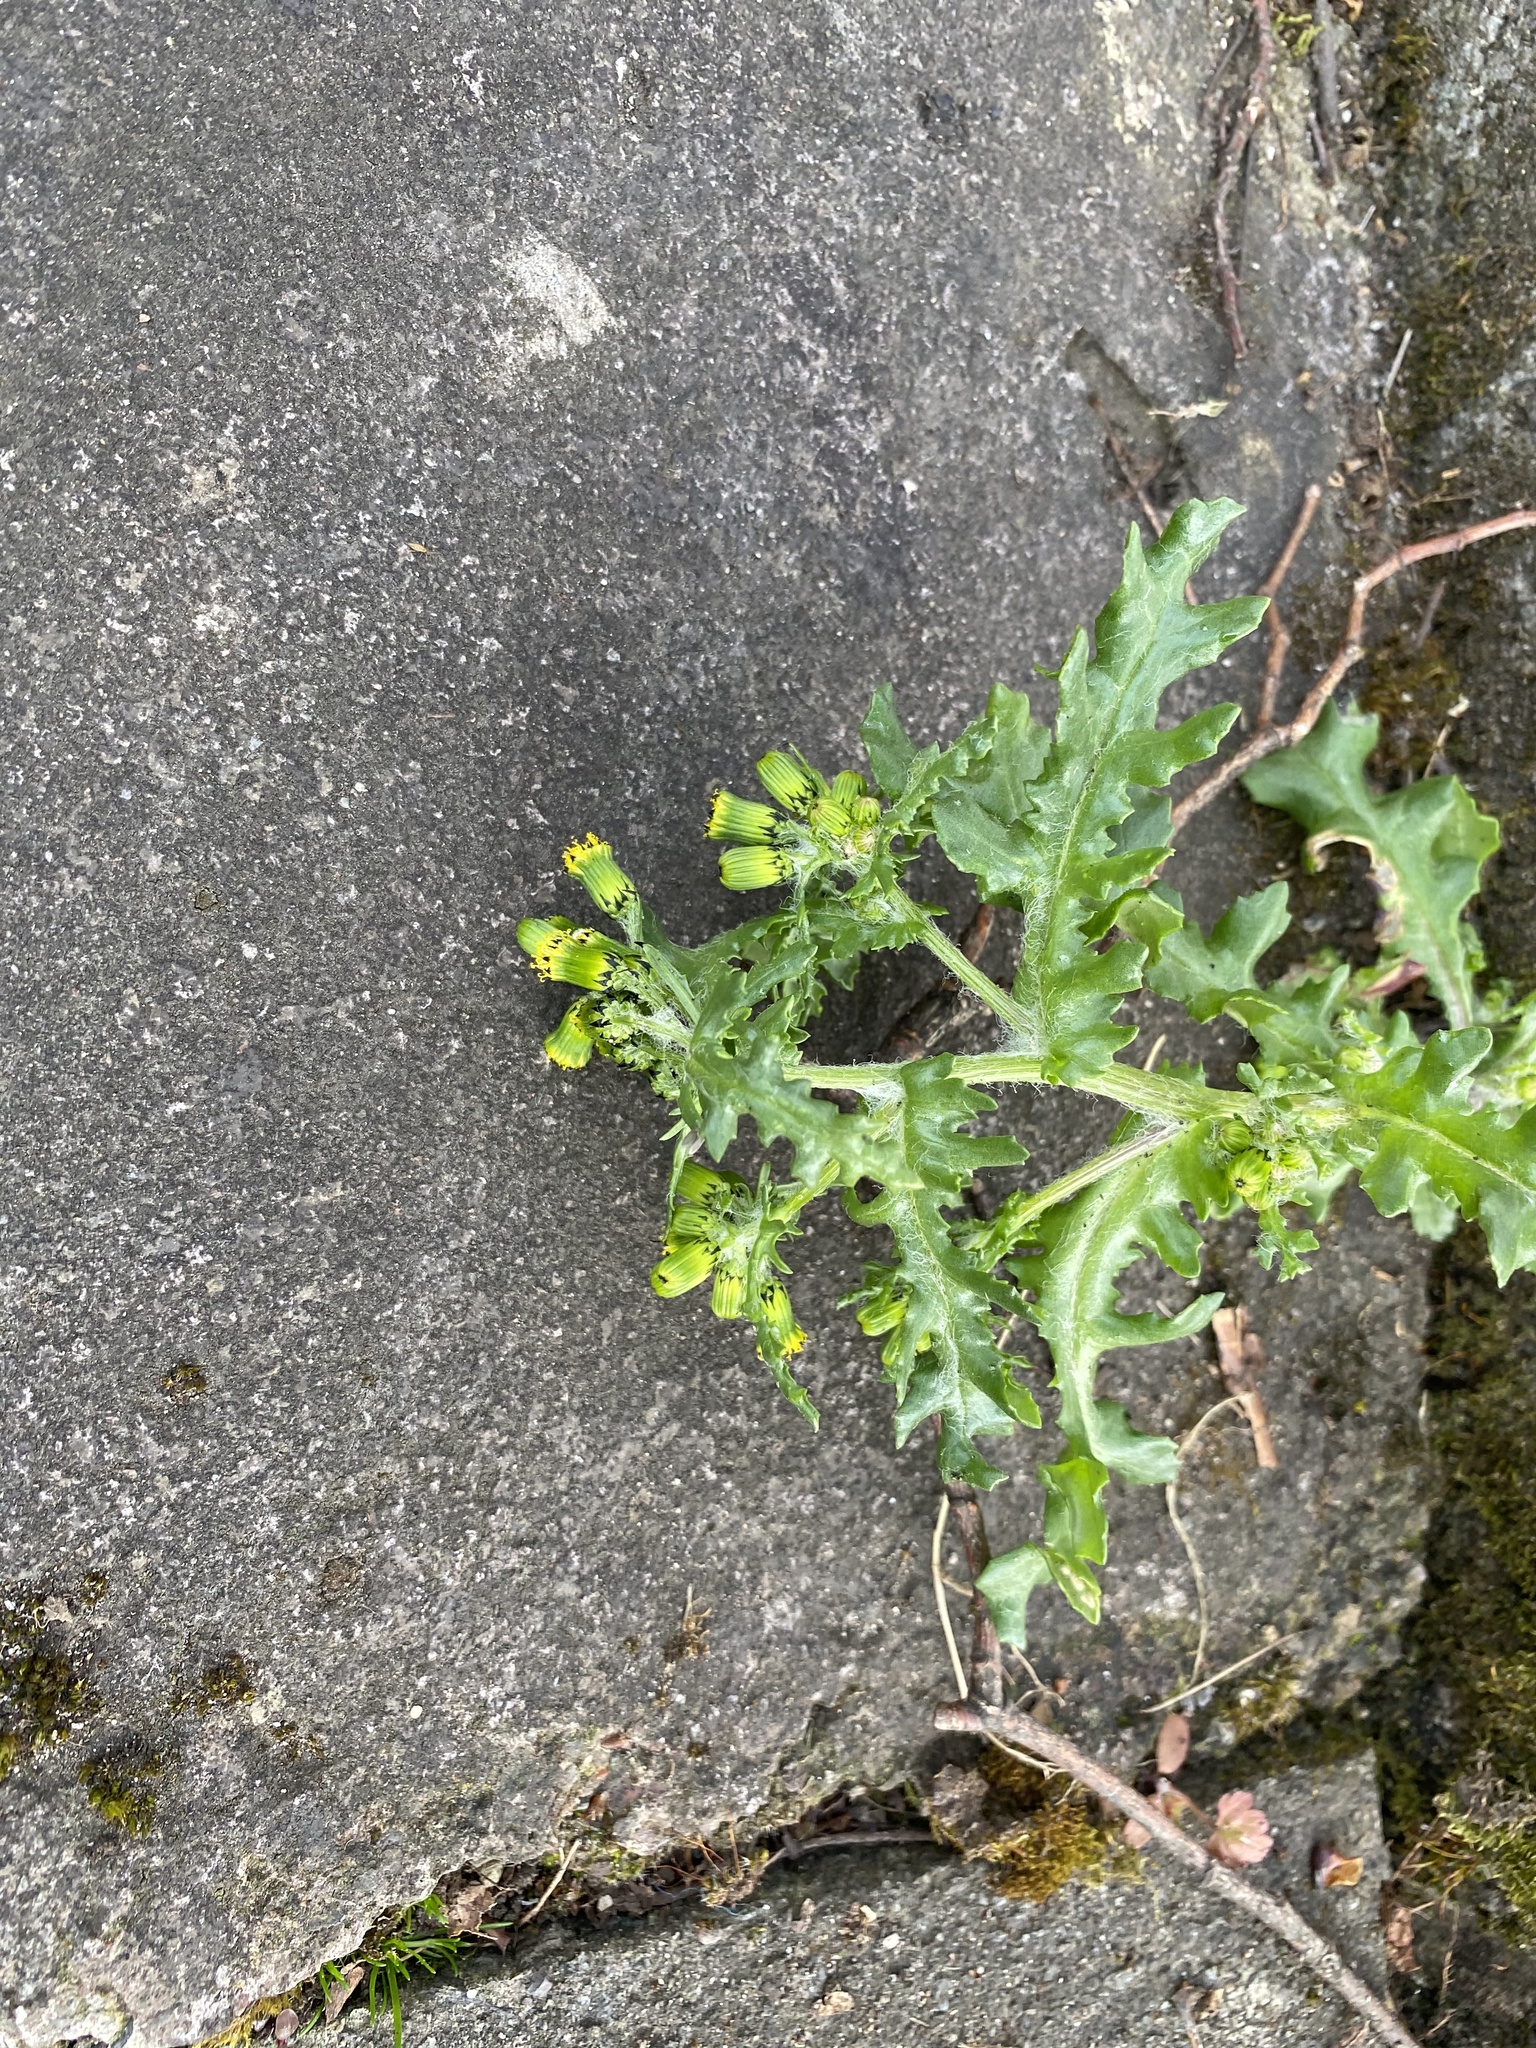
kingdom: Plantae
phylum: Tracheophyta
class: Magnoliopsida
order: Asterales
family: Asteraceae
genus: Senecio
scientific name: Senecio vulgaris
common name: Old-man-in-the-spring
